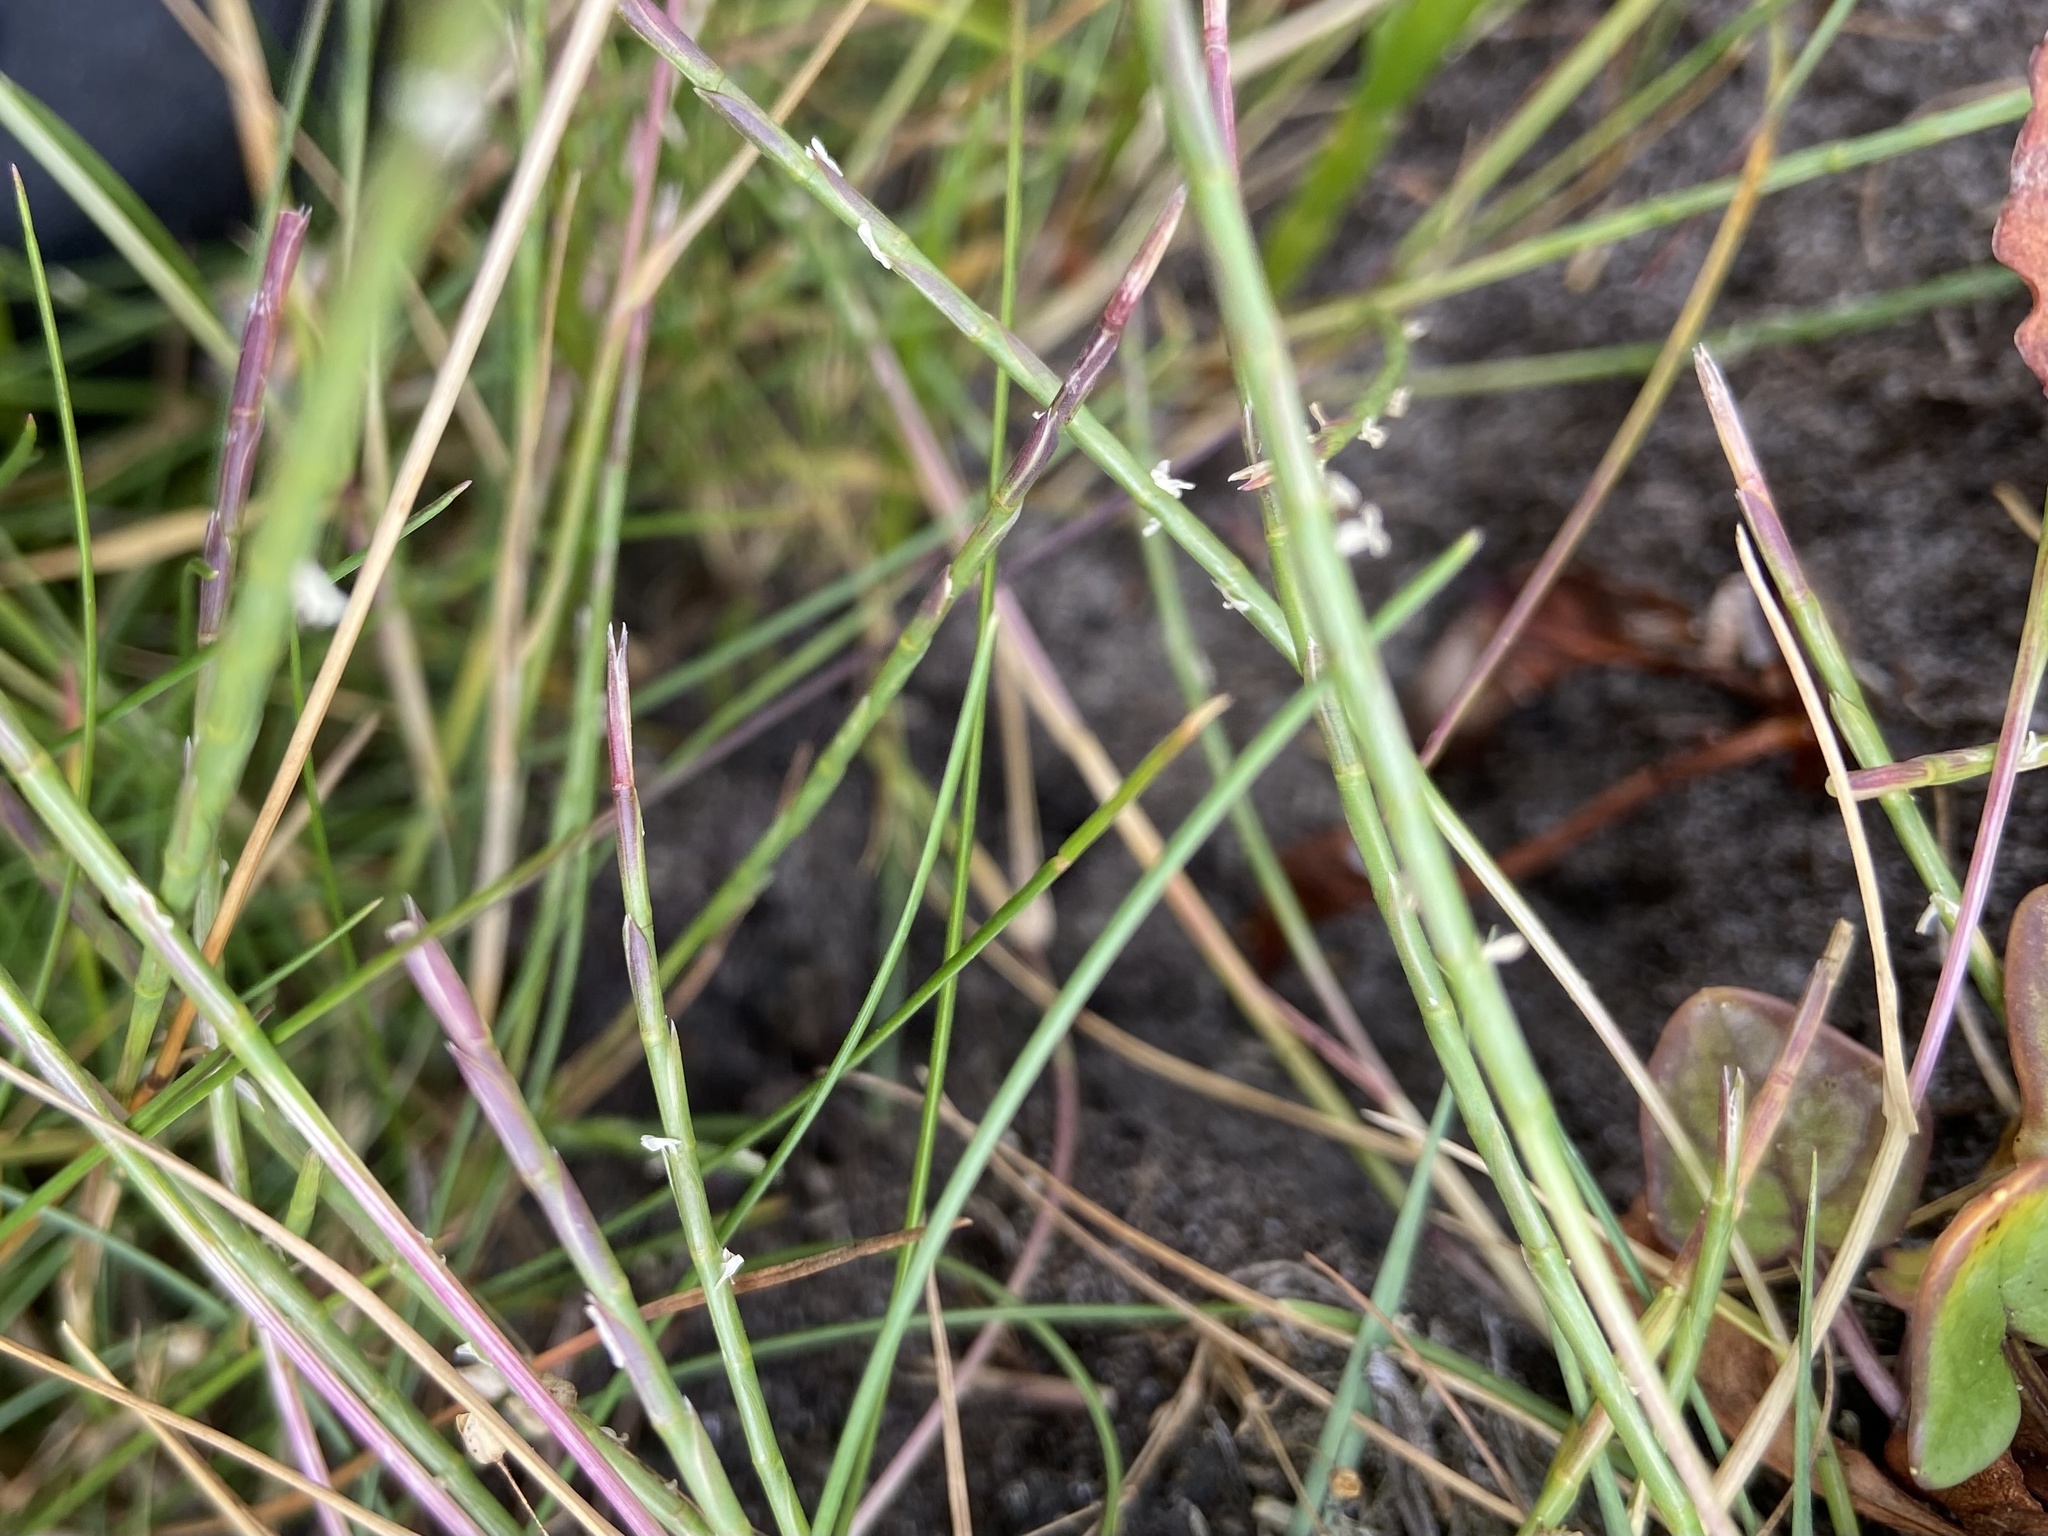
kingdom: Plantae
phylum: Tracheophyta
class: Liliopsida
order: Poales
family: Poaceae
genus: Parapholis
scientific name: Parapholis strigosa
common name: Hard-grass
